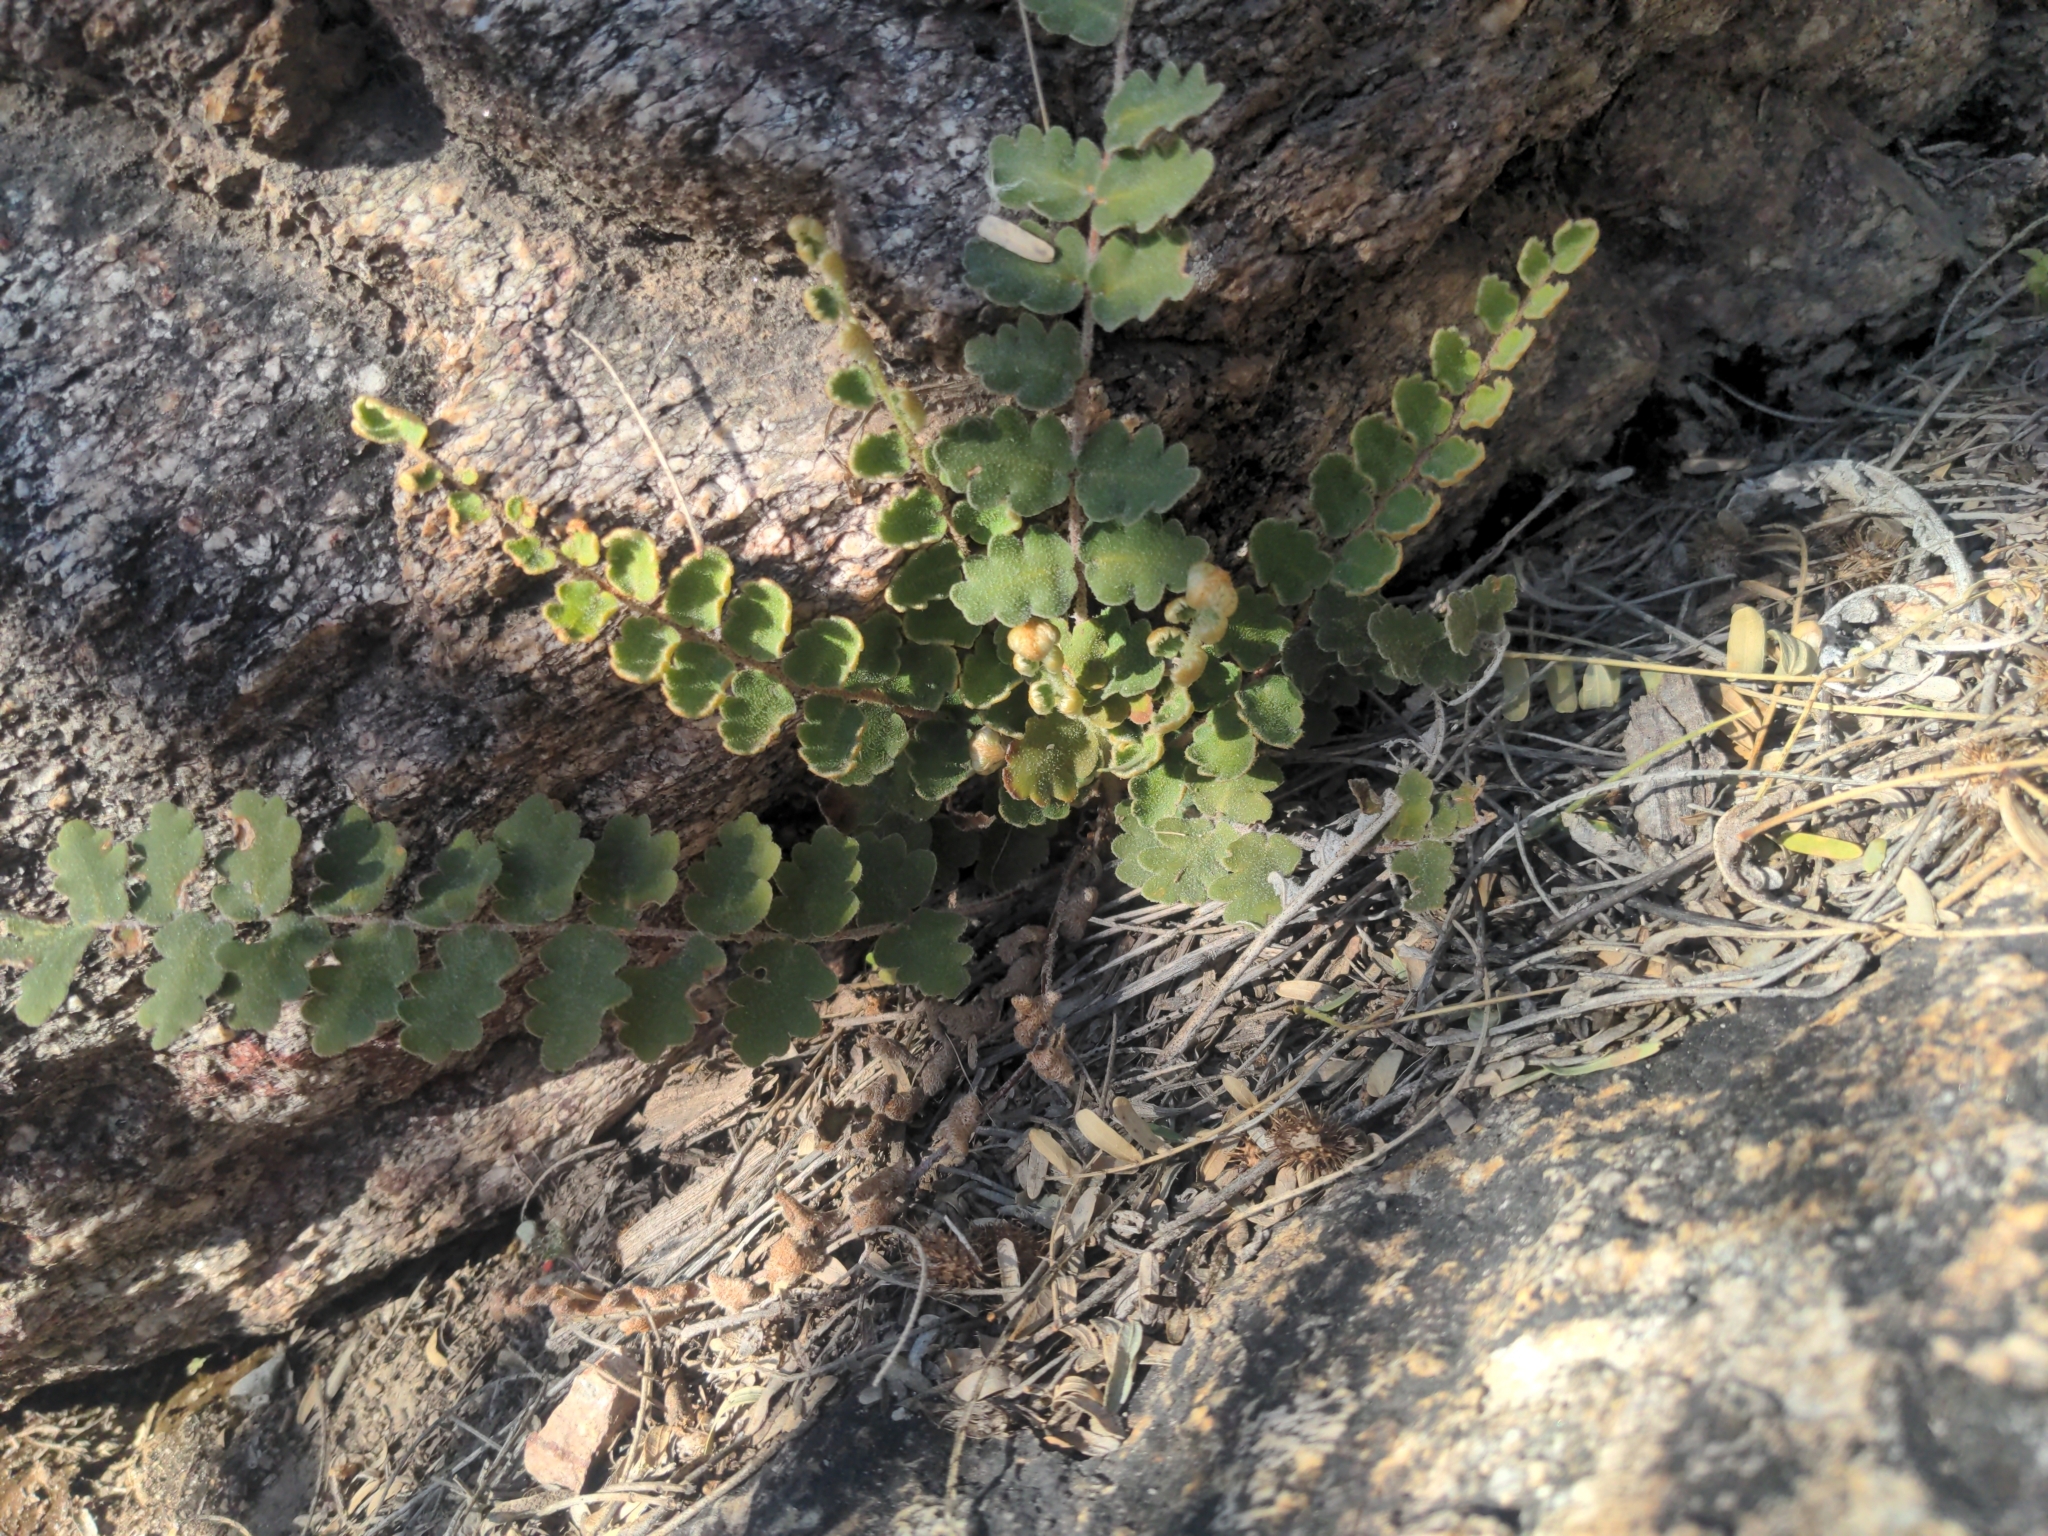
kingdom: Plantae
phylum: Tracheophyta
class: Polypodiopsida
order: Polypodiales
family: Pteridaceae
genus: Astrolepis
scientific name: Astrolepis sinuata
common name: Wavy scaly cloakfern
